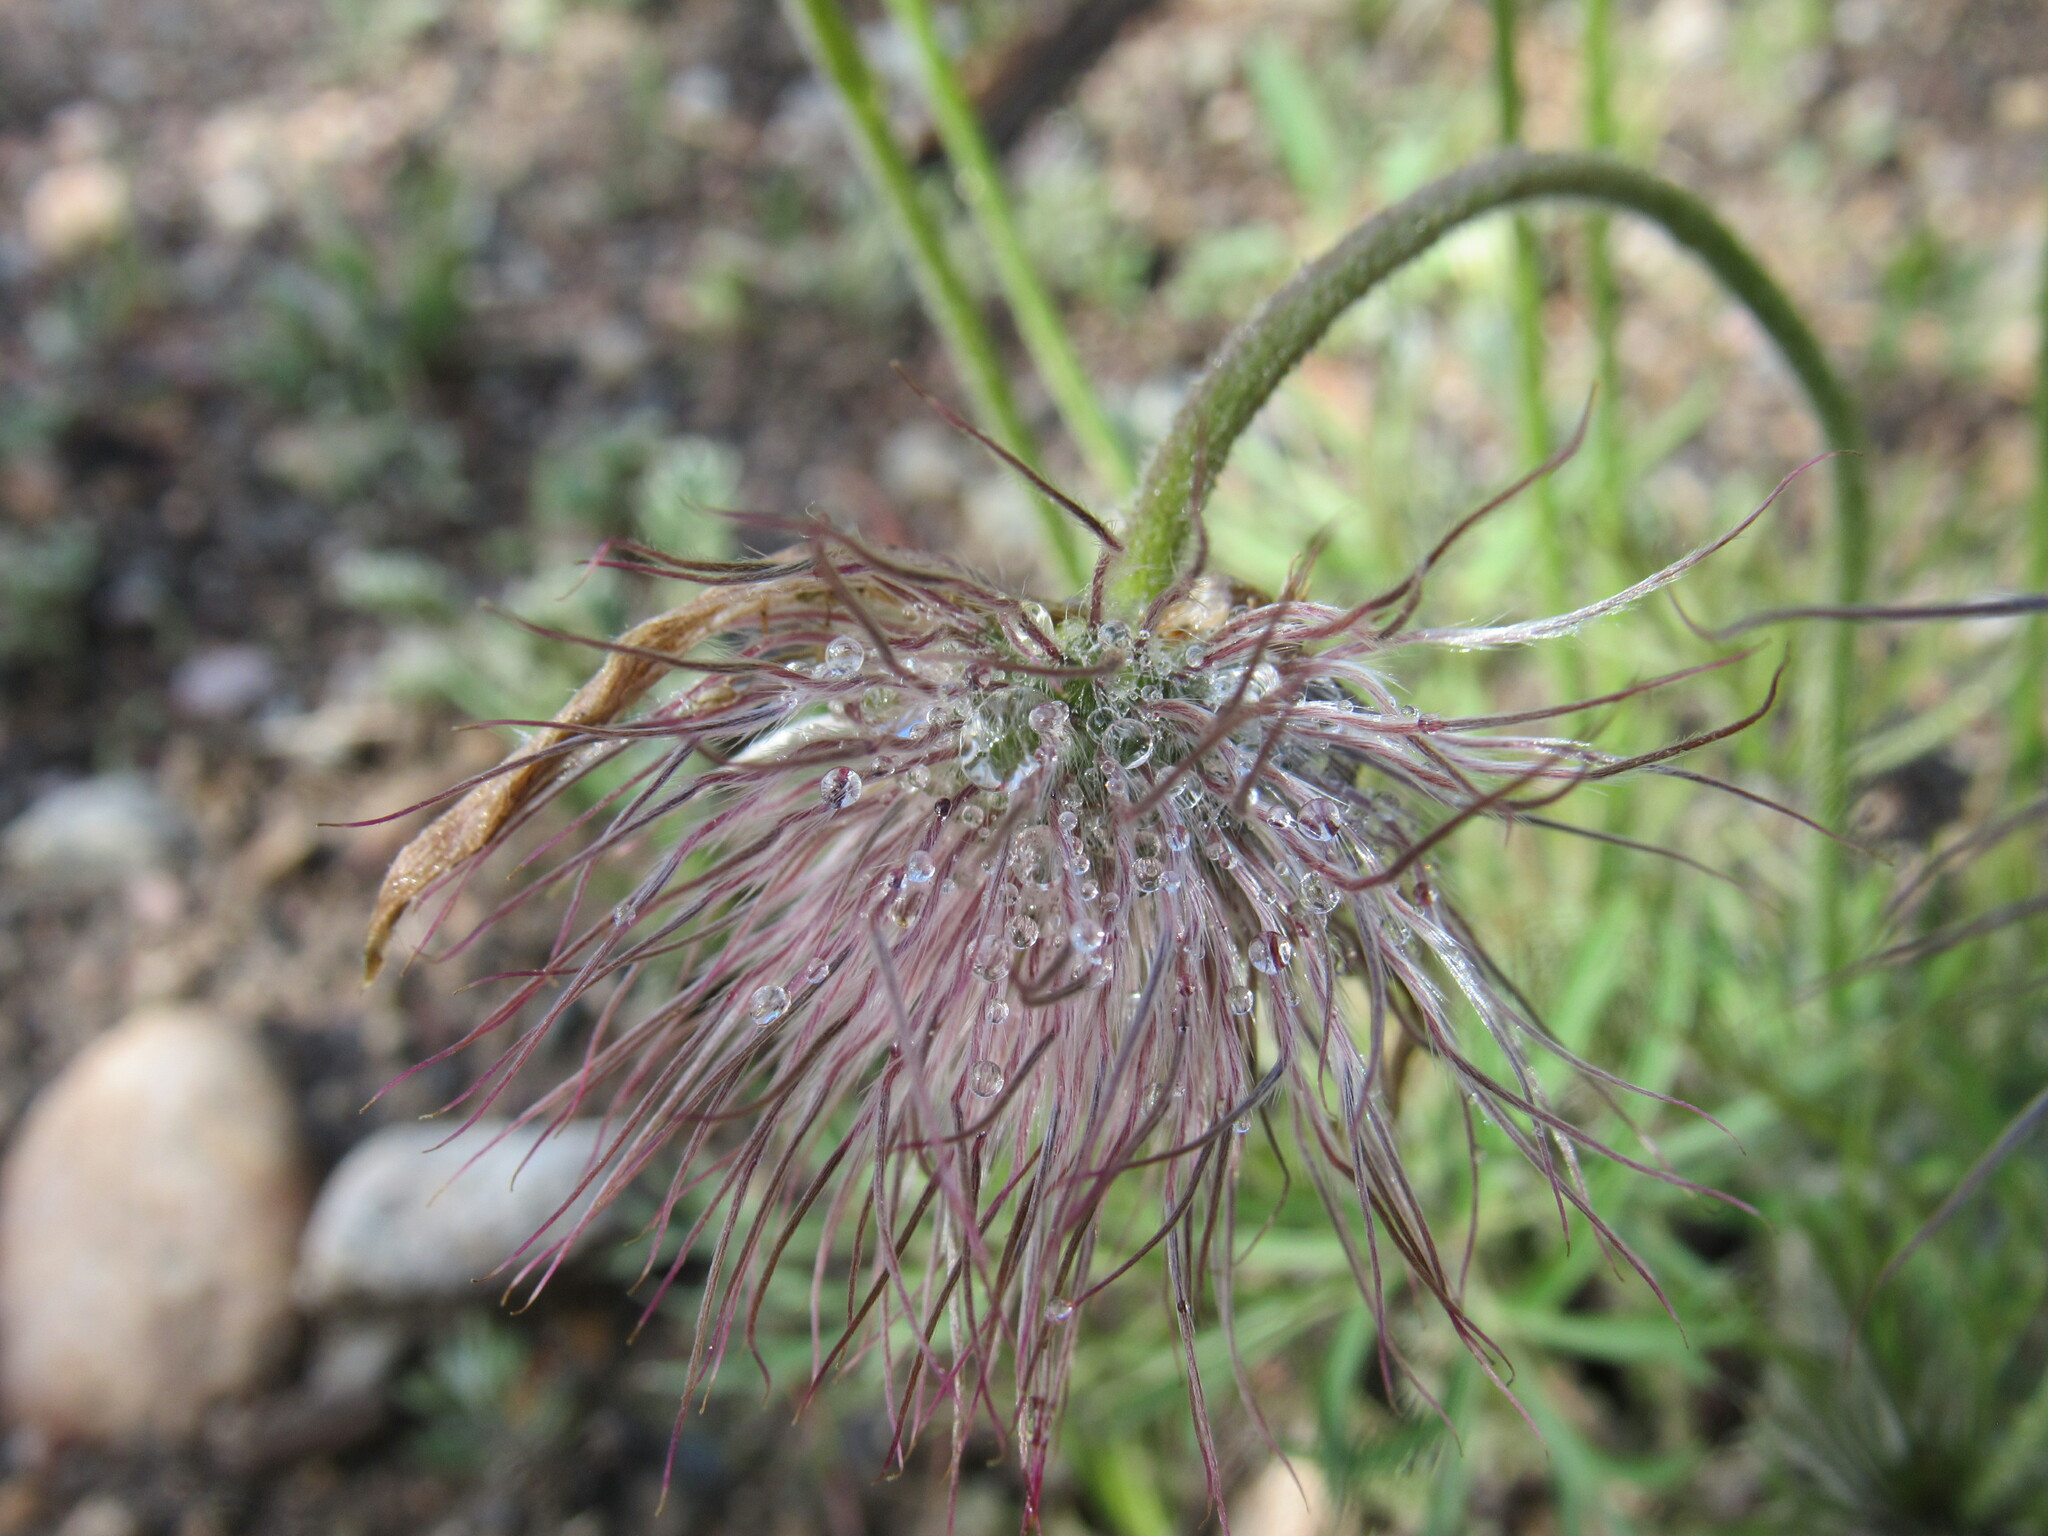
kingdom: Plantae
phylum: Tracheophyta
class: Magnoliopsida
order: Ranunculales
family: Ranunculaceae
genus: Pulsatilla
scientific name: Pulsatilla nuttalliana
